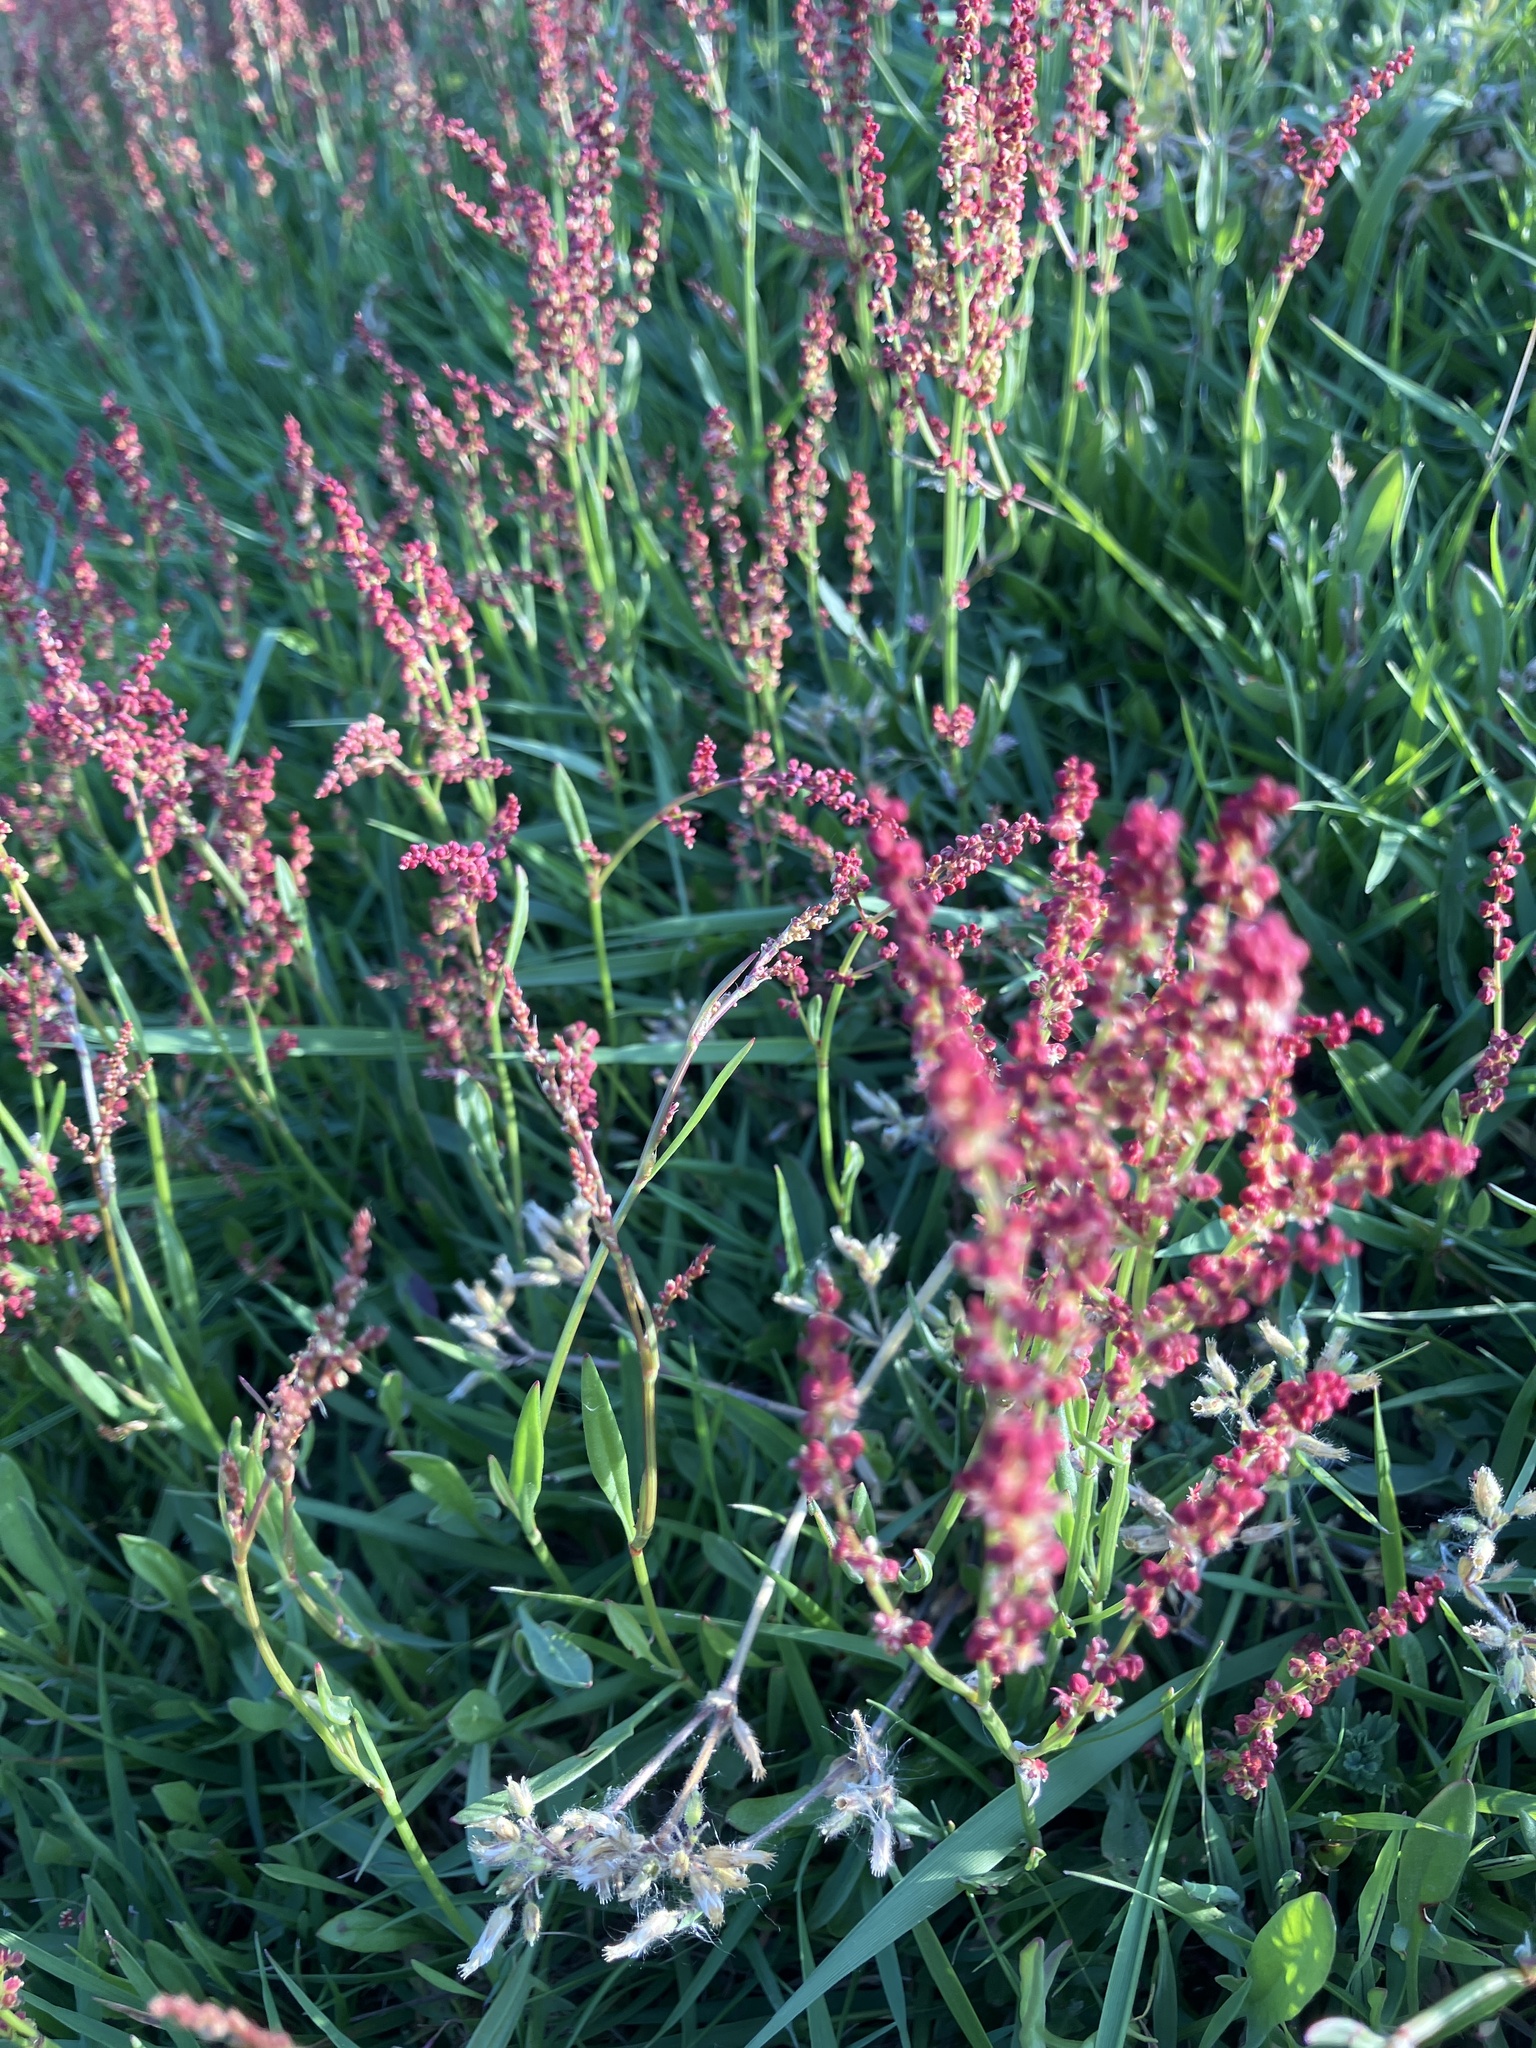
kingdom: Plantae
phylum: Tracheophyta
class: Magnoliopsida
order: Caryophyllales
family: Polygonaceae
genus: Rumex
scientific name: Rumex acetosella
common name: Common sheep sorrel
